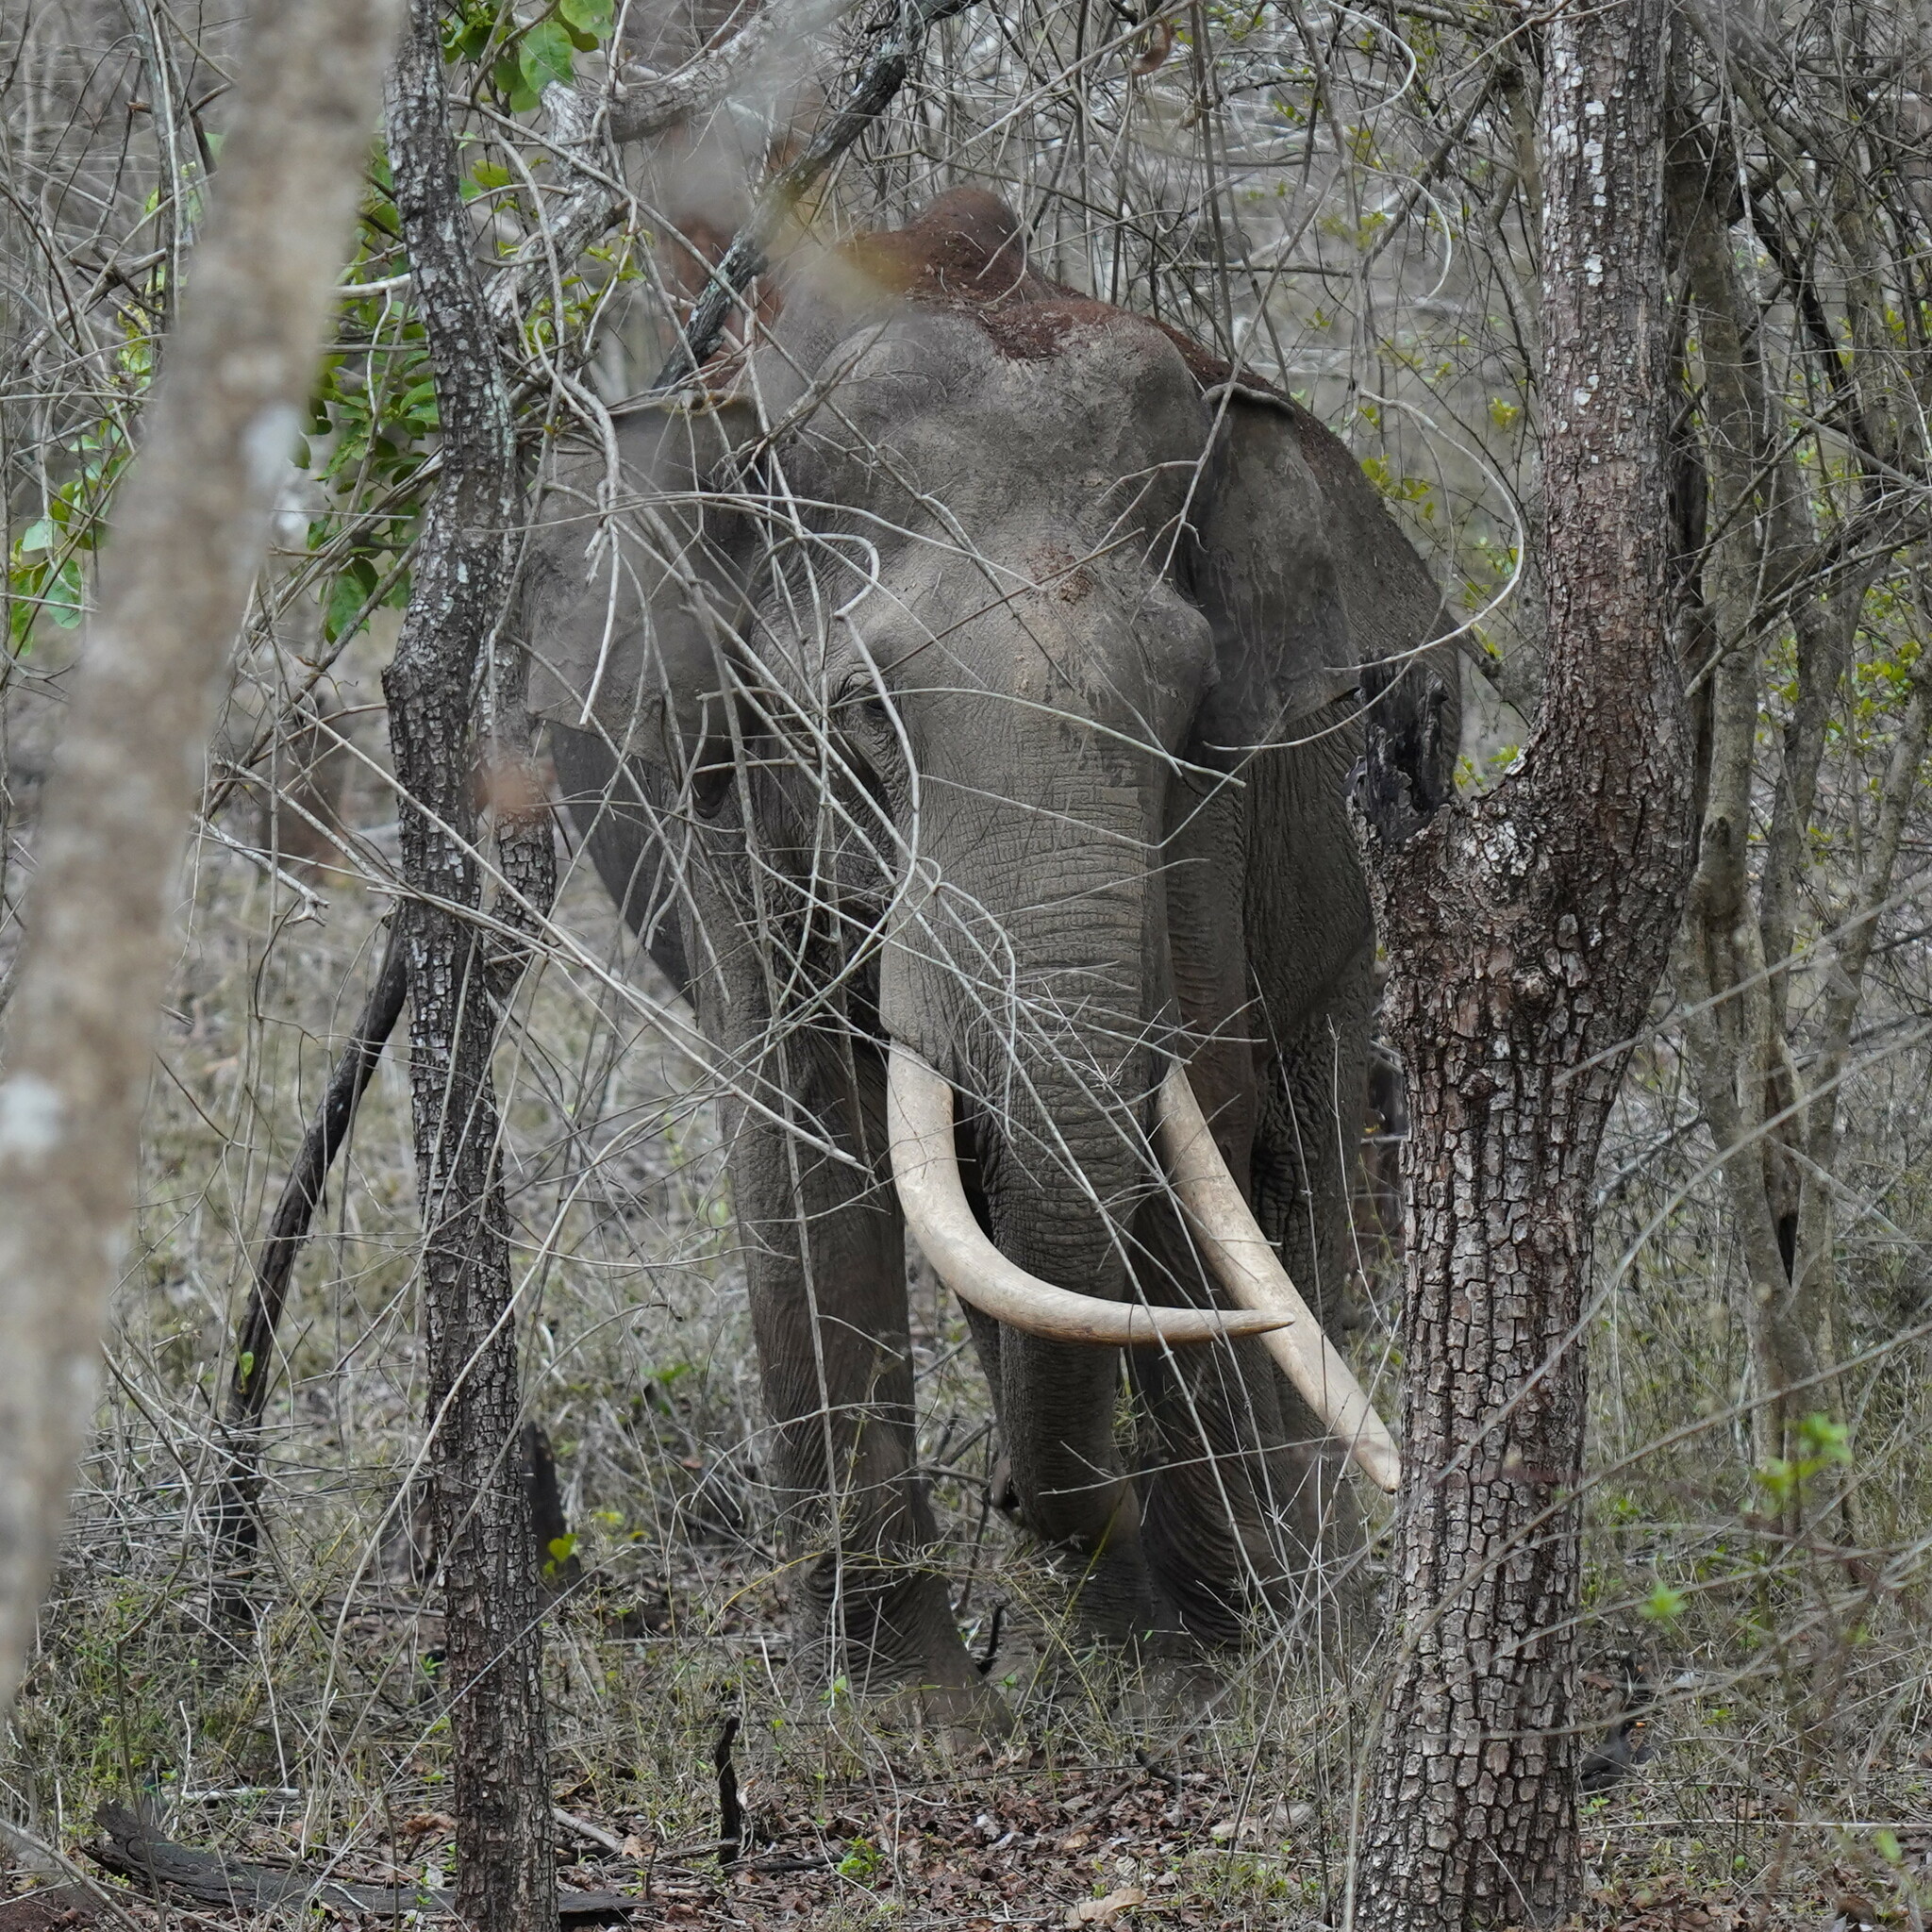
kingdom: Animalia
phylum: Chordata
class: Mammalia
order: Proboscidea
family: Elephantidae
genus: Elephas
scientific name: Elephas maximus
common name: Asian elephant
